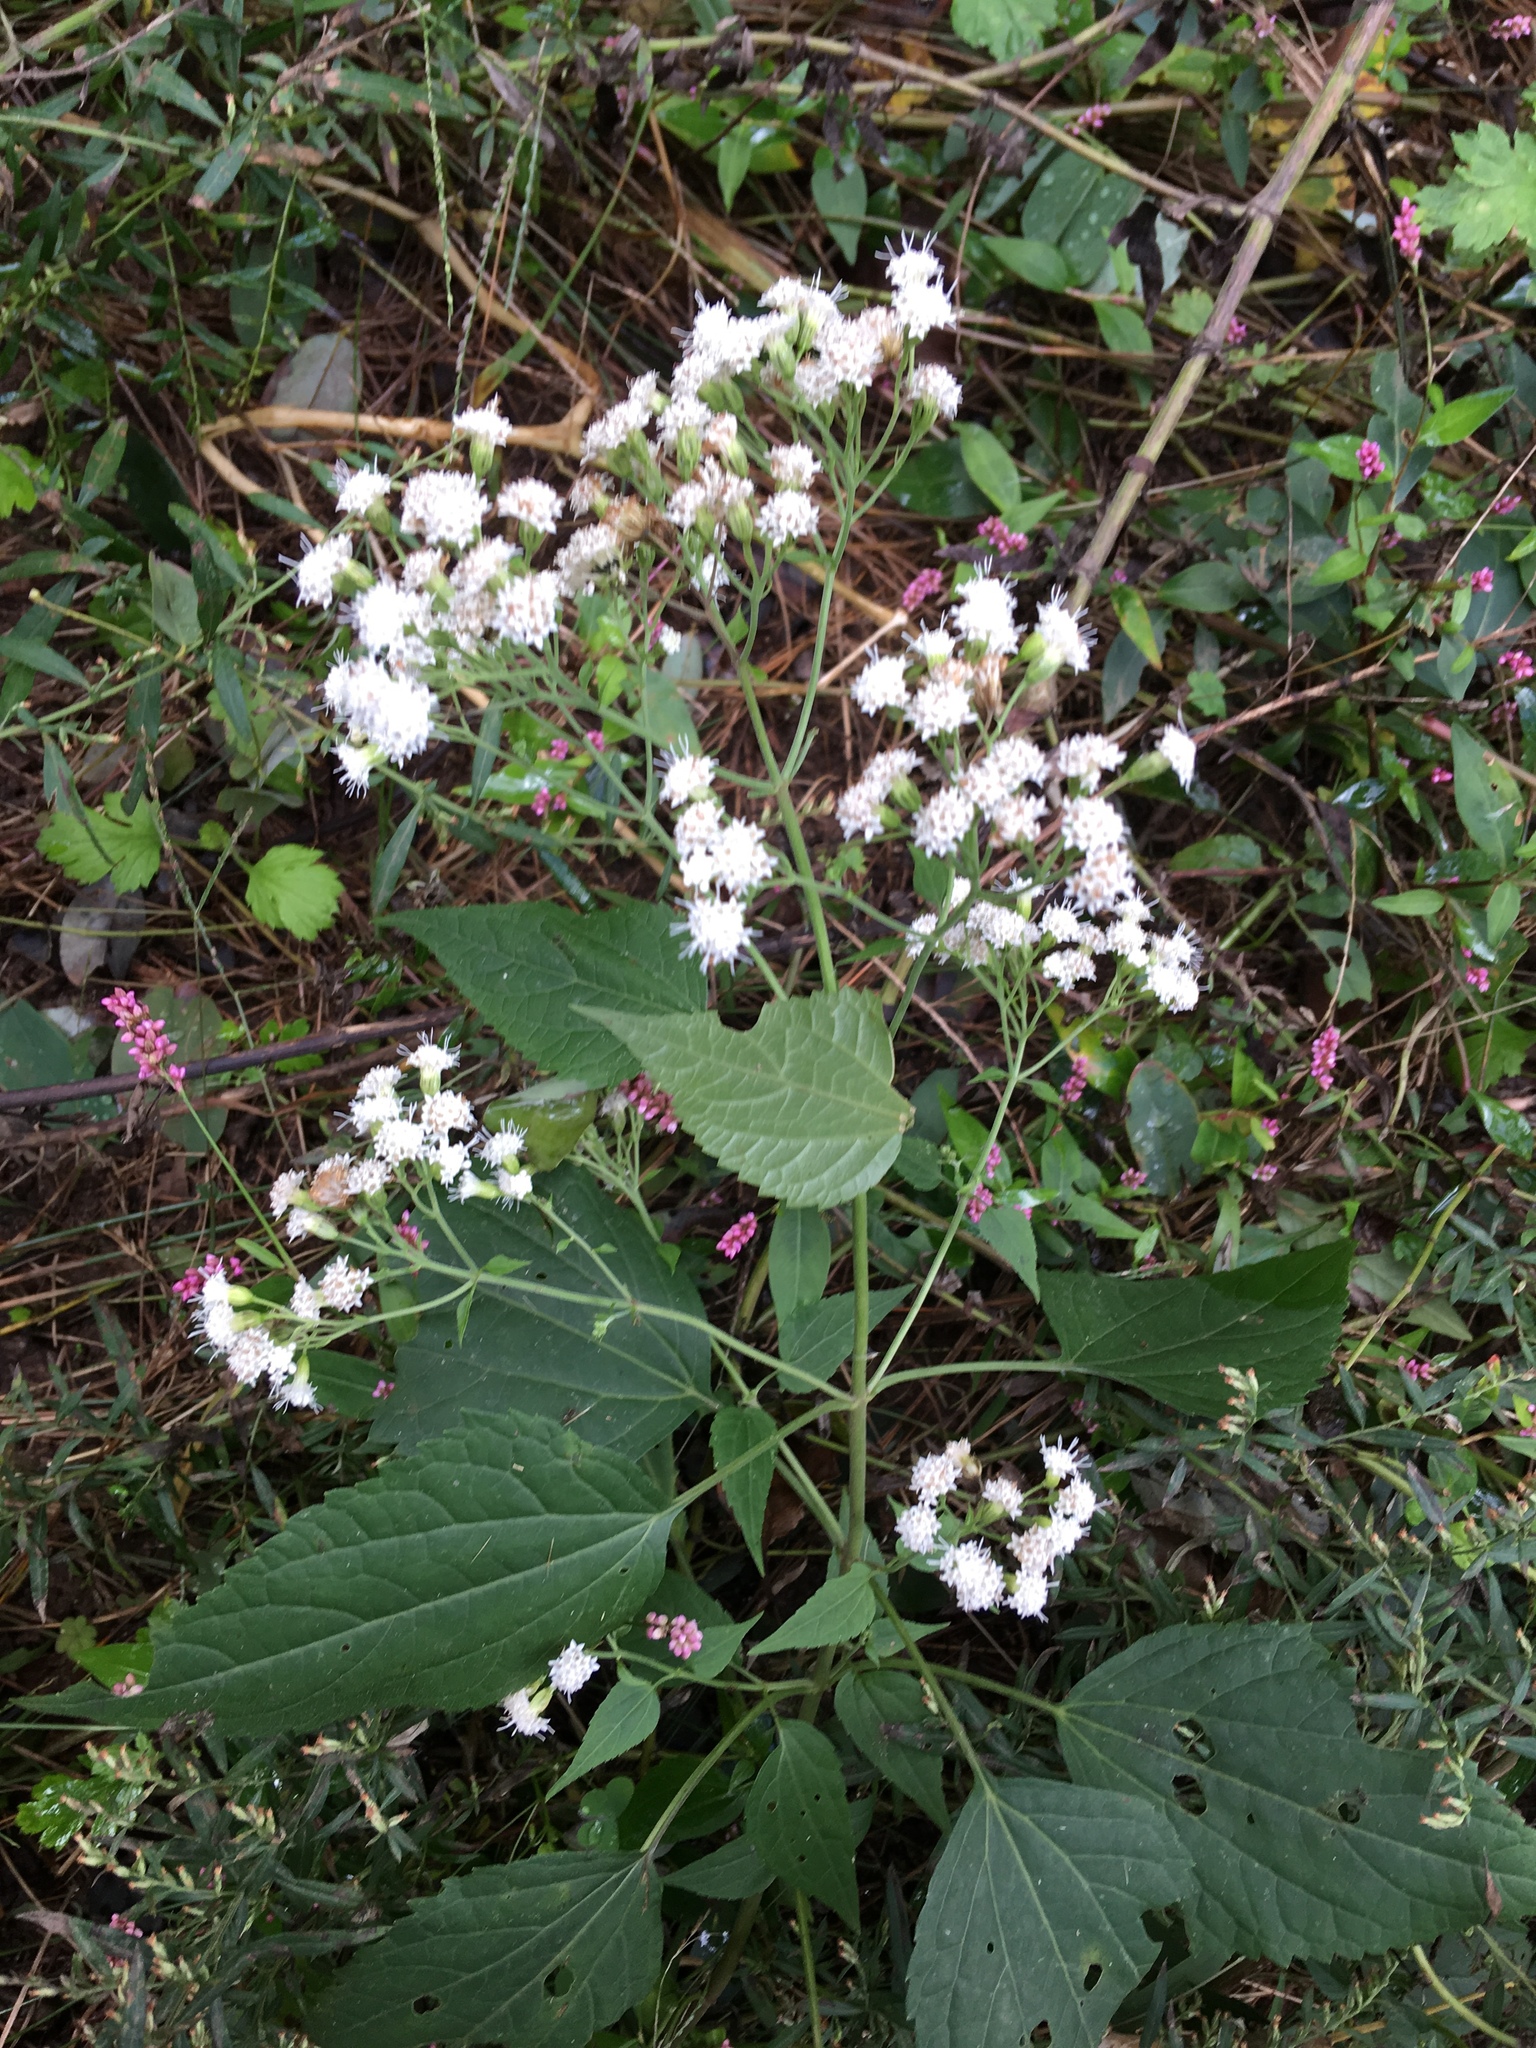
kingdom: Plantae
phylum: Tracheophyta
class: Magnoliopsida
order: Asterales
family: Asteraceae
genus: Ageratina
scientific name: Ageratina altissima
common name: White snakeroot
